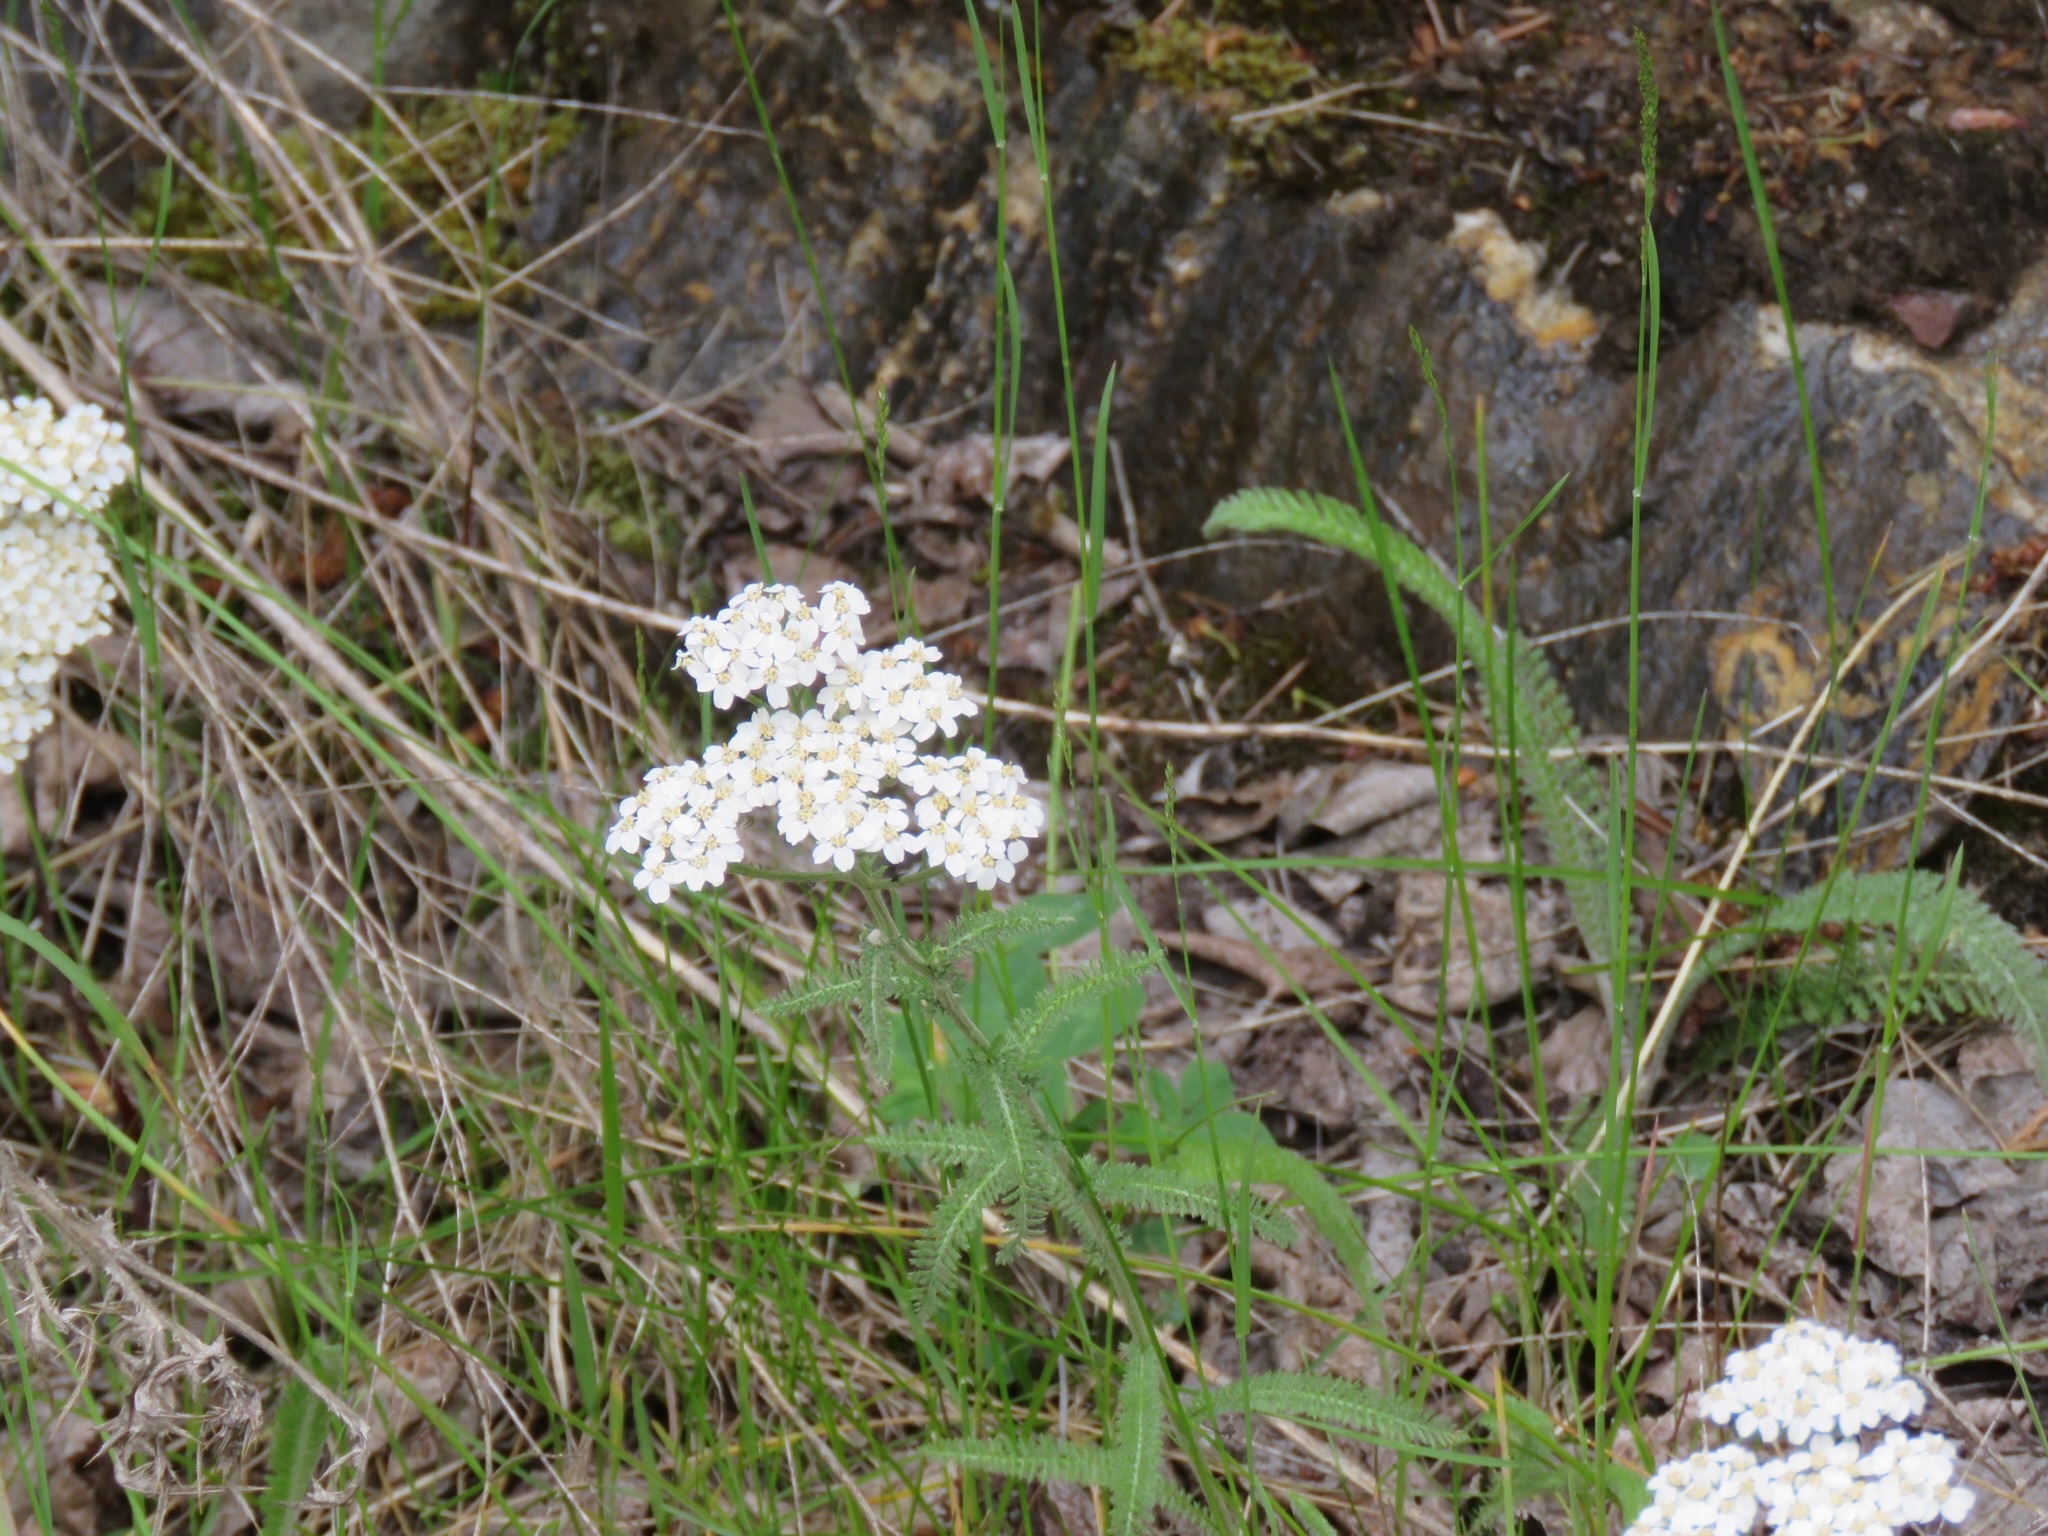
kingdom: Plantae
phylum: Tracheophyta
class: Magnoliopsida
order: Asterales
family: Asteraceae
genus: Achillea
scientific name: Achillea millefolium
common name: Yarrow
